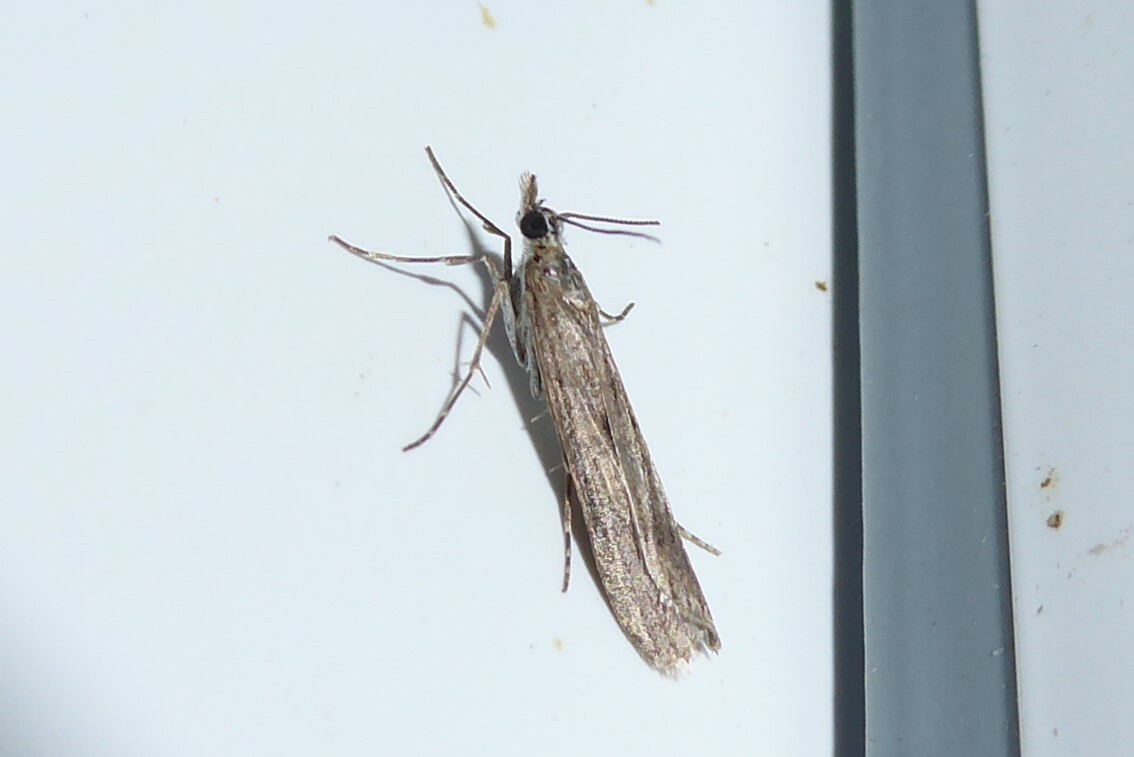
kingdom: Animalia
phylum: Arthropoda
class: Insecta
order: Lepidoptera
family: Crambidae
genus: Eudonia
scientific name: Eudonia leptalea
